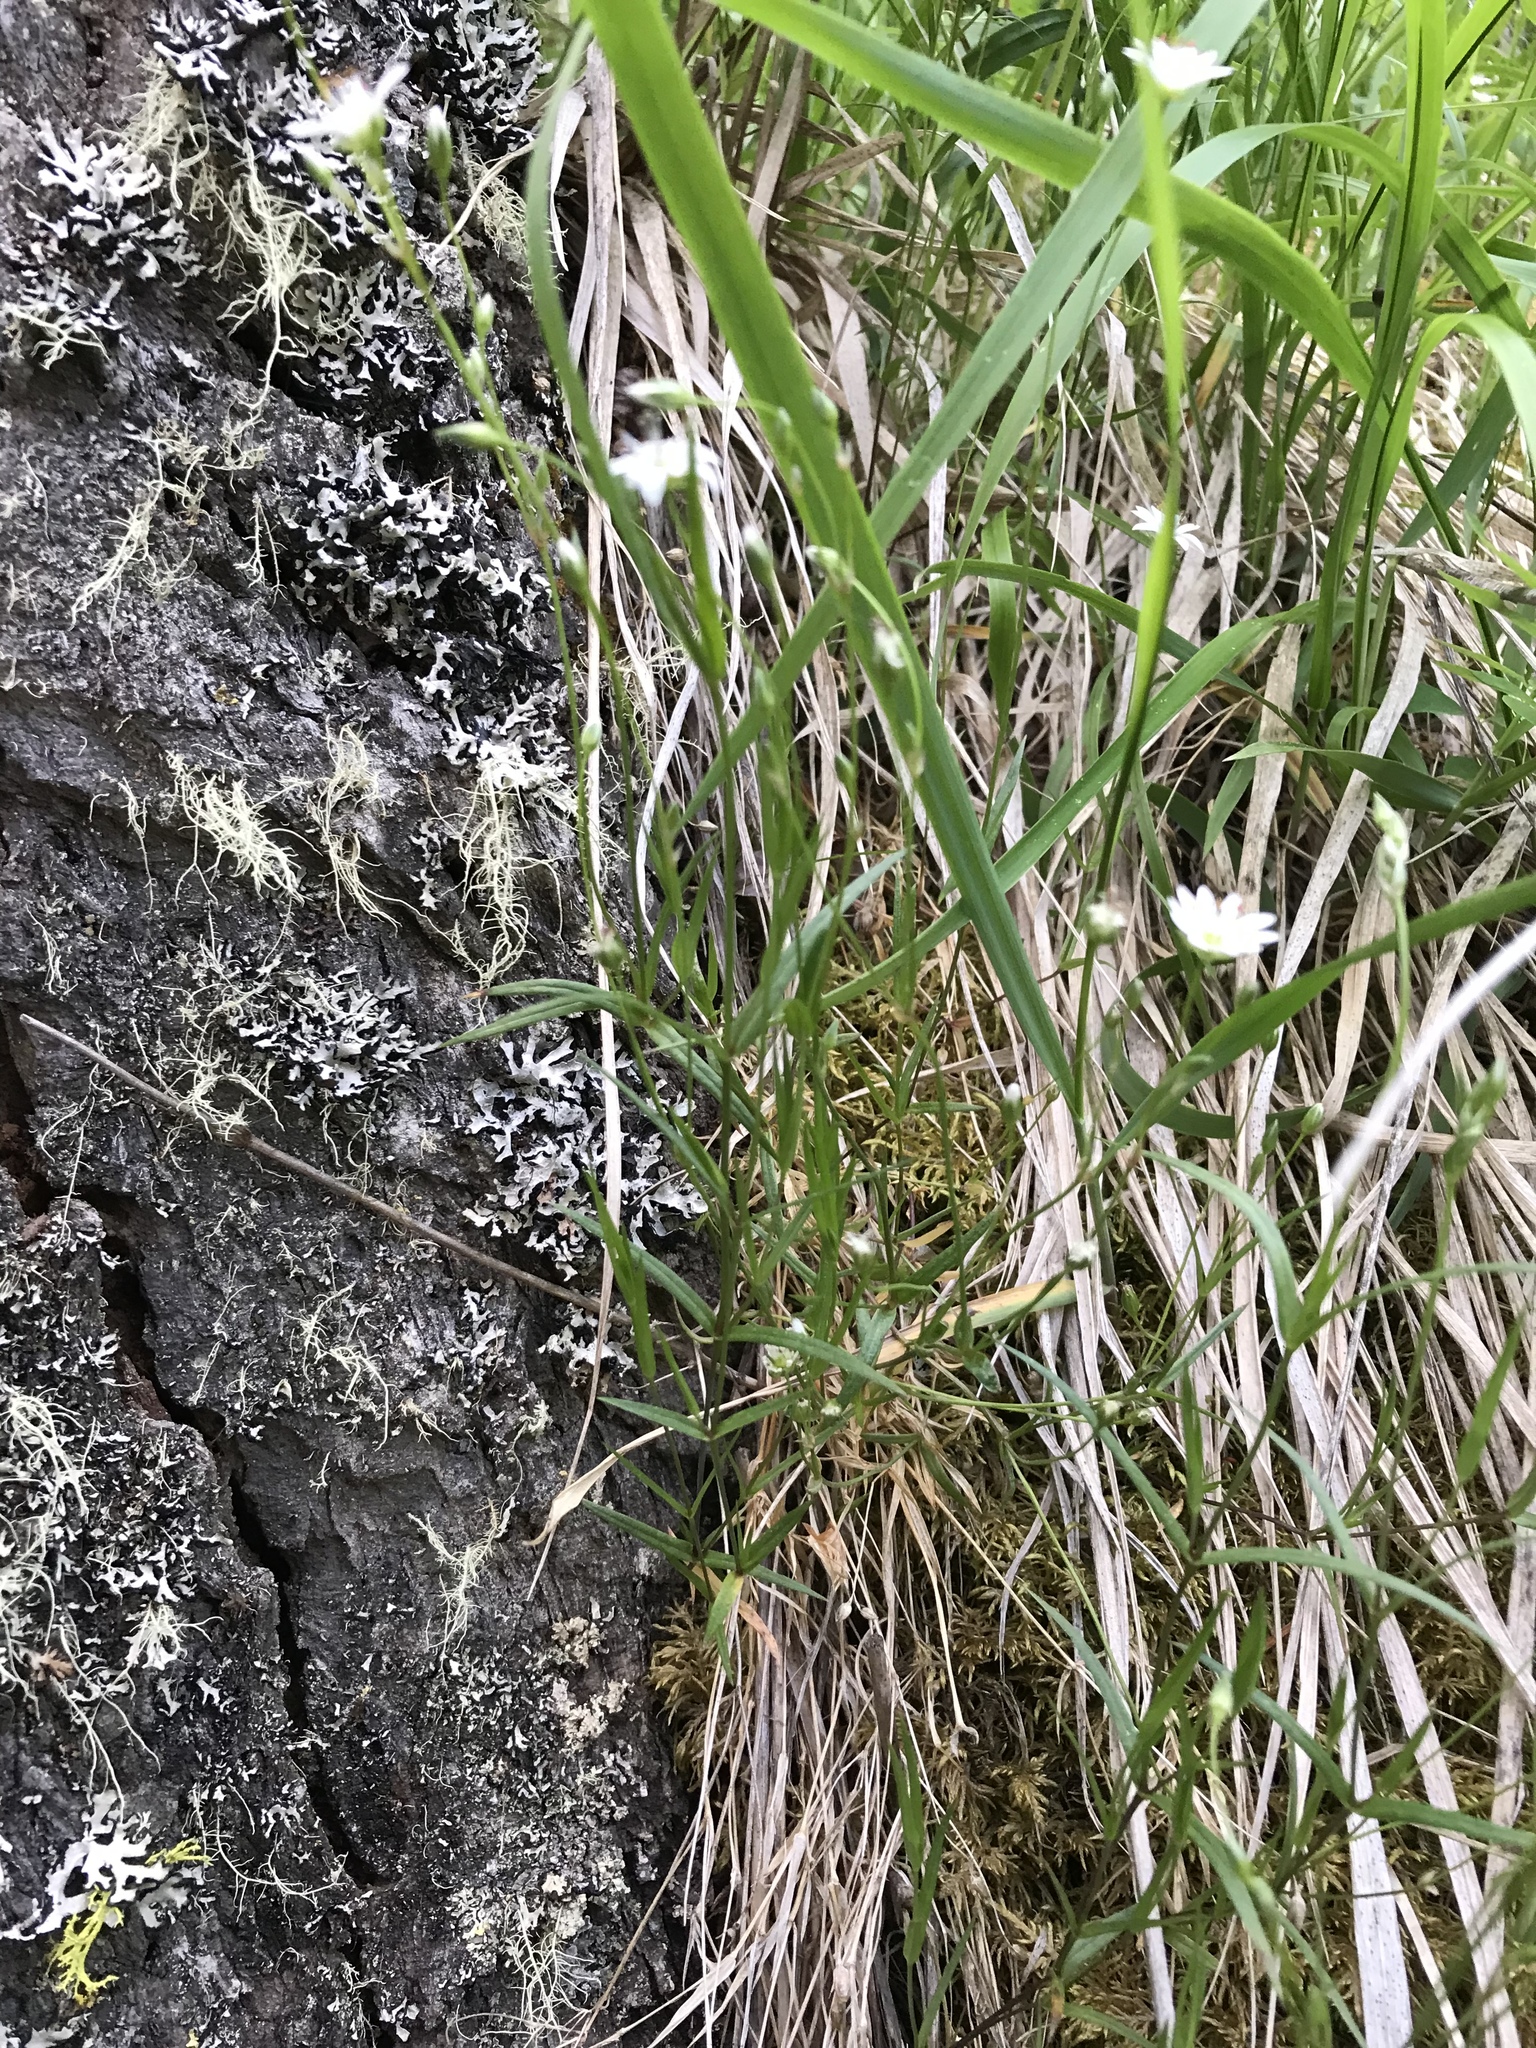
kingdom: Plantae
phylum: Tracheophyta
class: Magnoliopsida
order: Caryophyllales
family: Caryophyllaceae
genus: Stellaria
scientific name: Stellaria longipes
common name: Goldie's starwort
